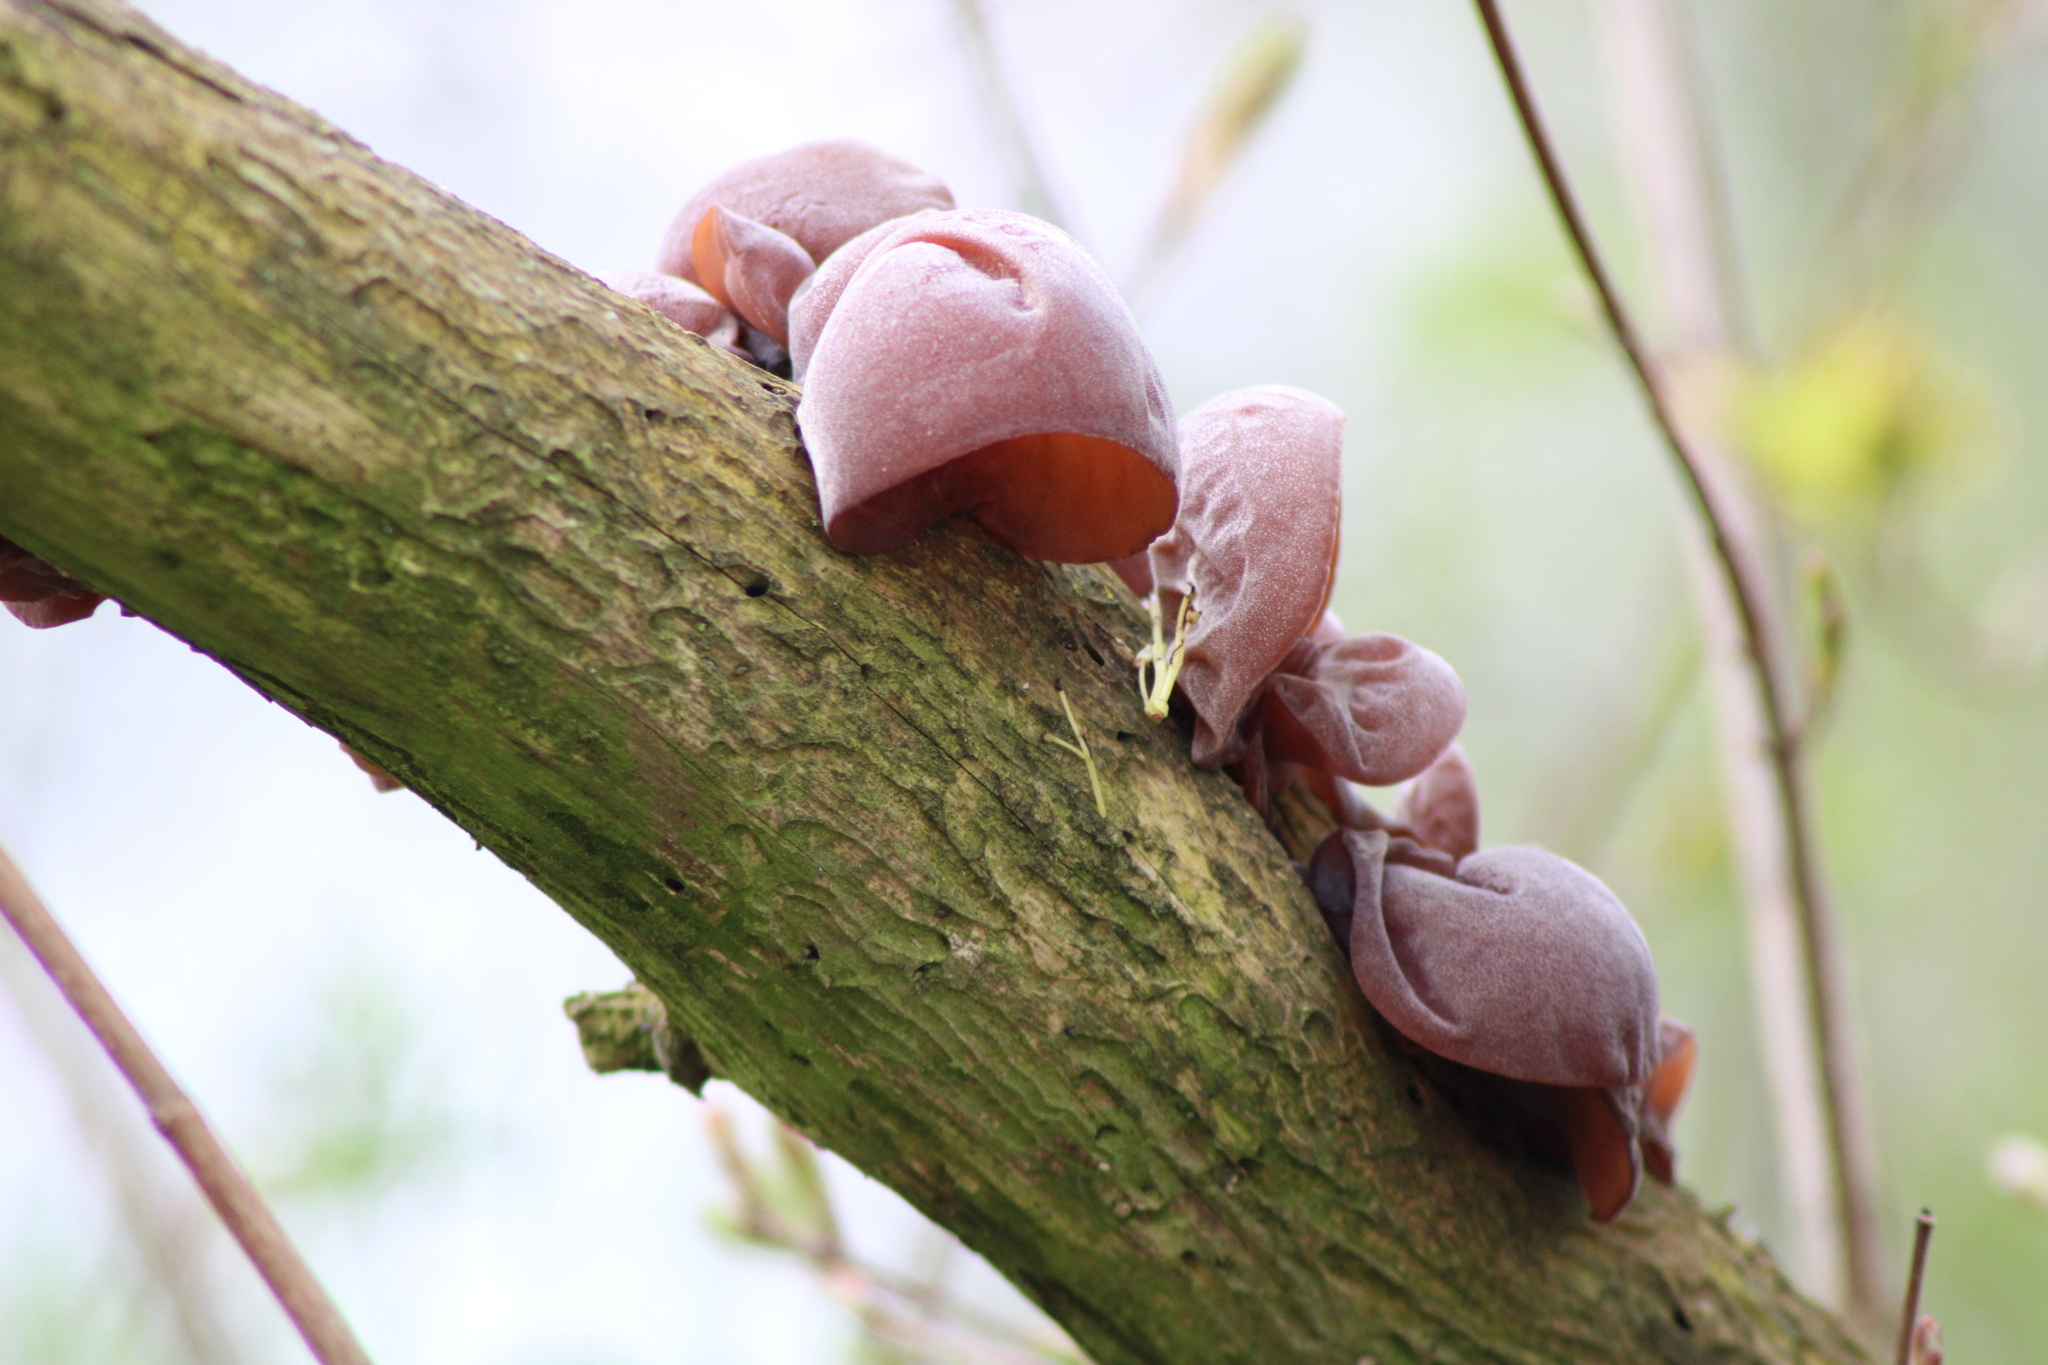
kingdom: Fungi
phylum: Basidiomycota
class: Agaricomycetes
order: Auriculariales
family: Auriculariaceae
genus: Auricularia
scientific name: Auricularia auricula-judae
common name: Jelly ear
